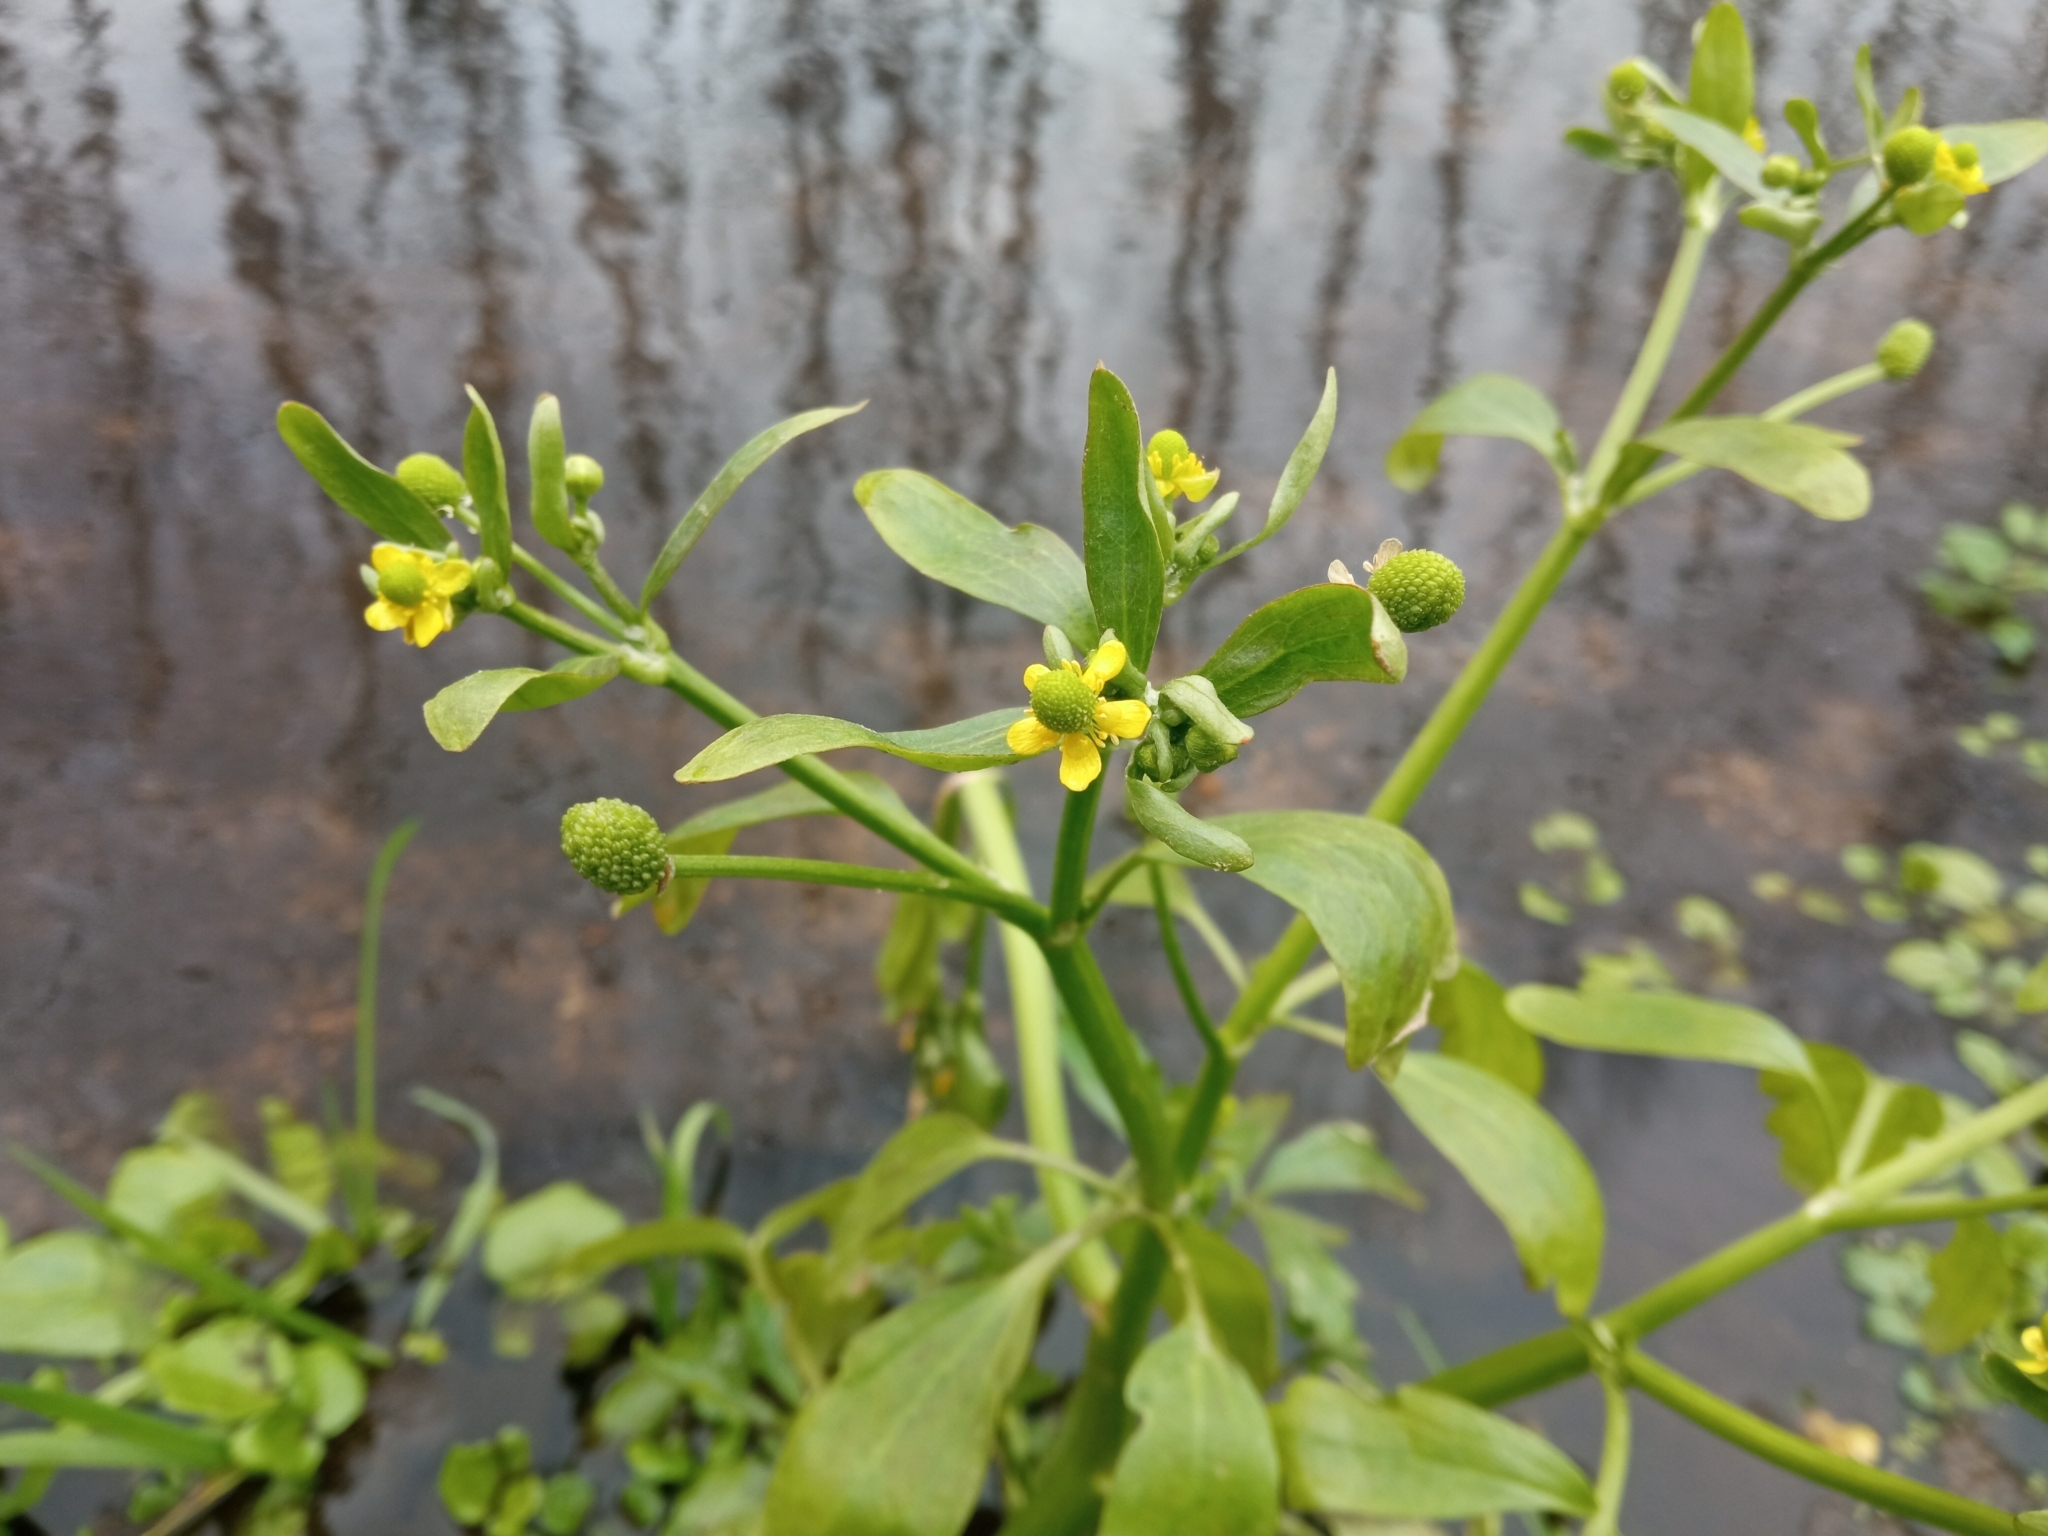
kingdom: Plantae
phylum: Tracheophyta
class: Magnoliopsida
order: Ranunculales
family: Ranunculaceae
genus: Ranunculus
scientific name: Ranunculus sceleratus
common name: Celery-leaved buttercup
